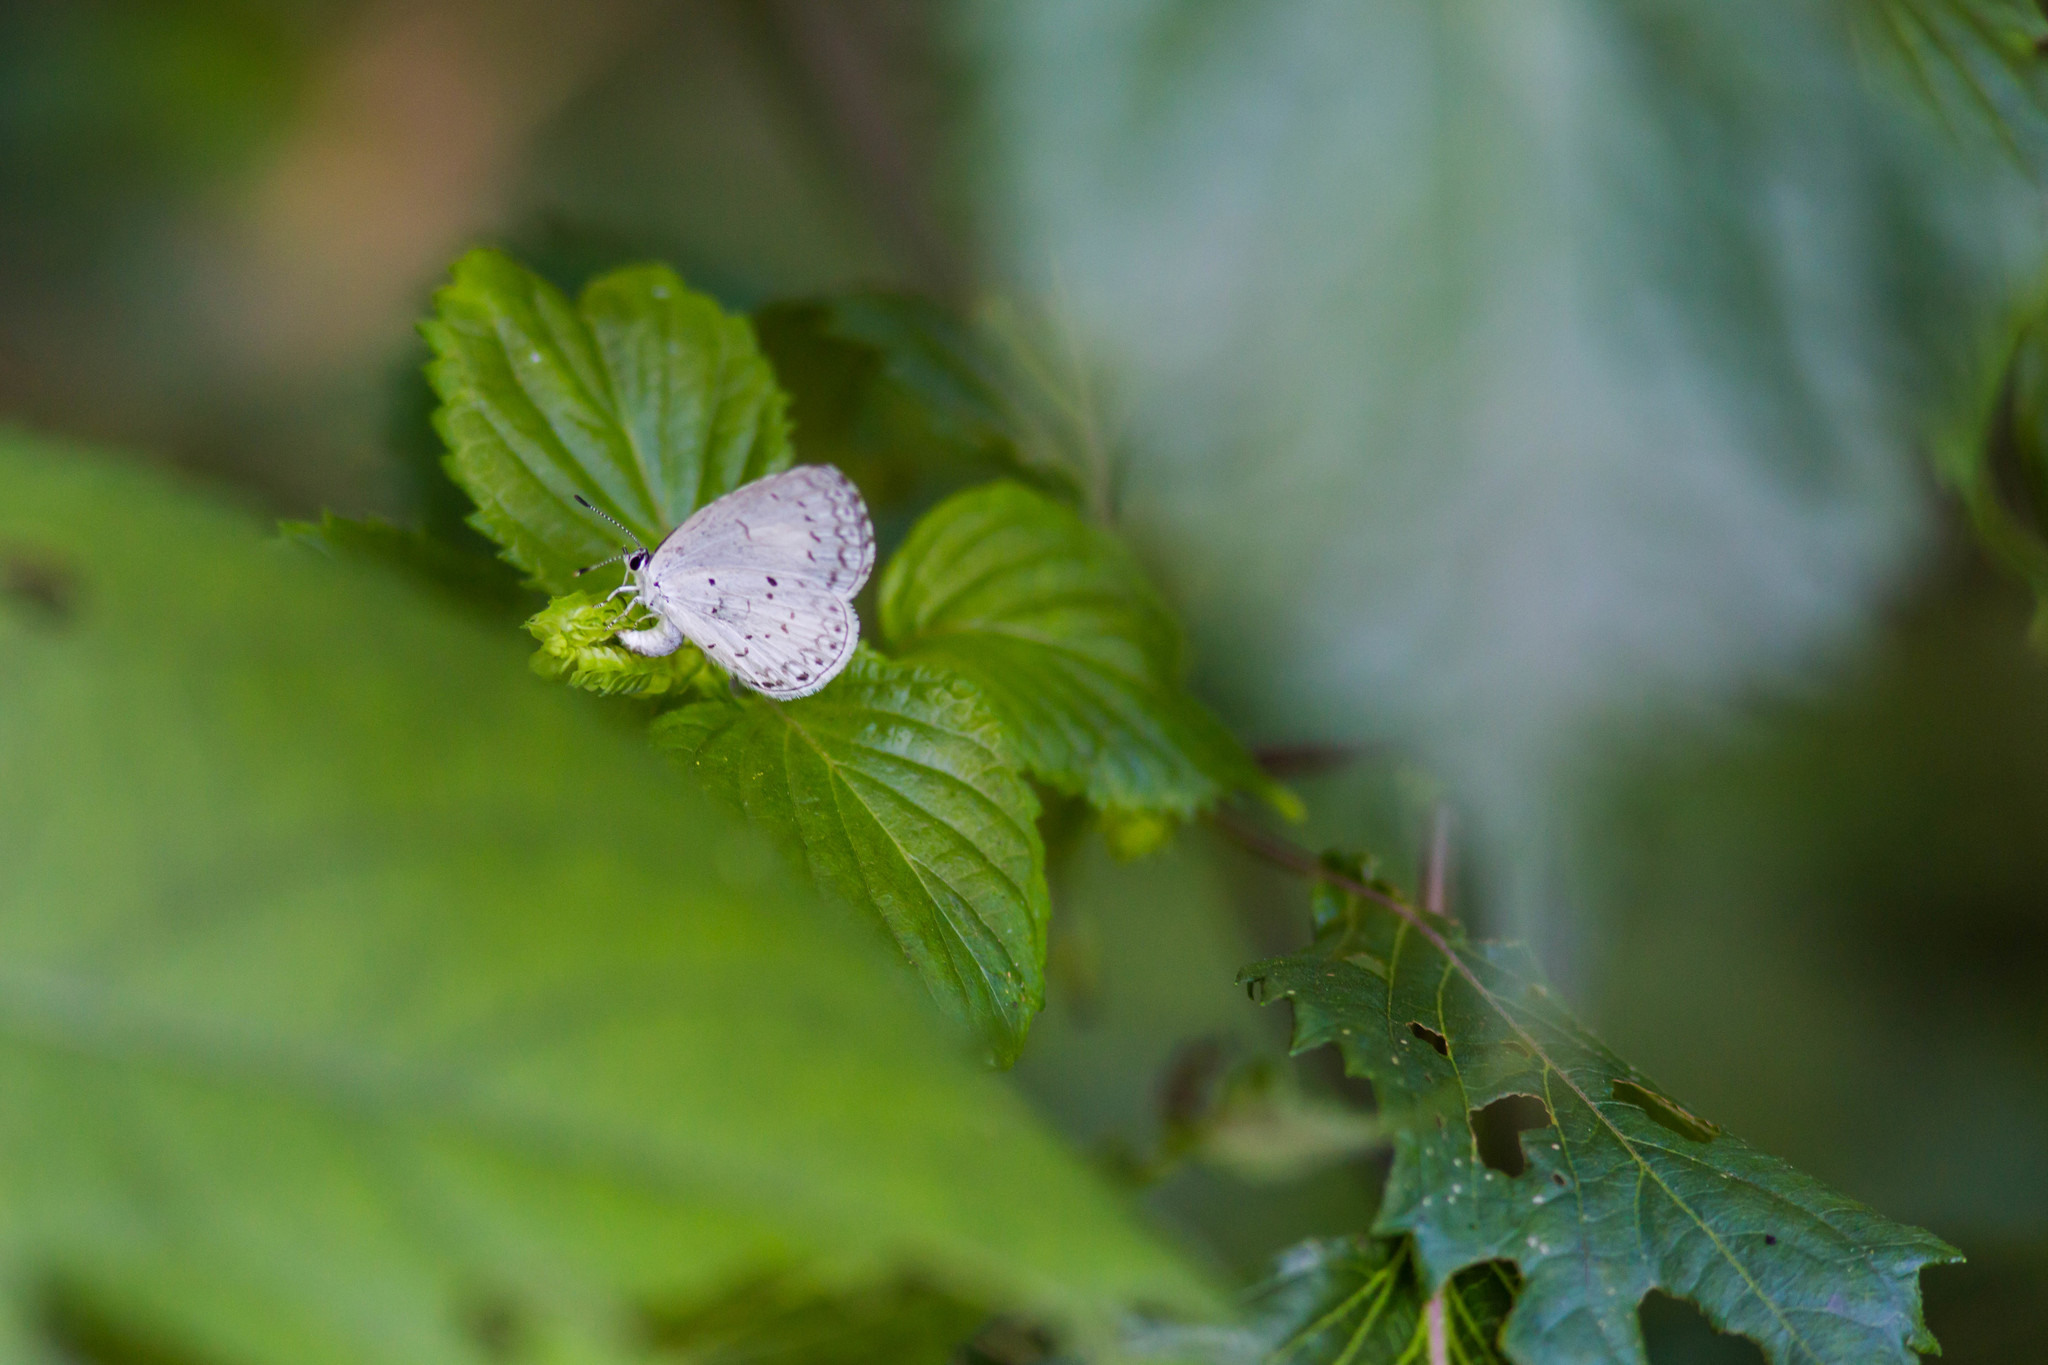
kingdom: Animalia
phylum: Arthropoda
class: Insecta
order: Lepidoptera
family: Lycaenidae
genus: Cyaniris
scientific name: Cyaniris neglecta
